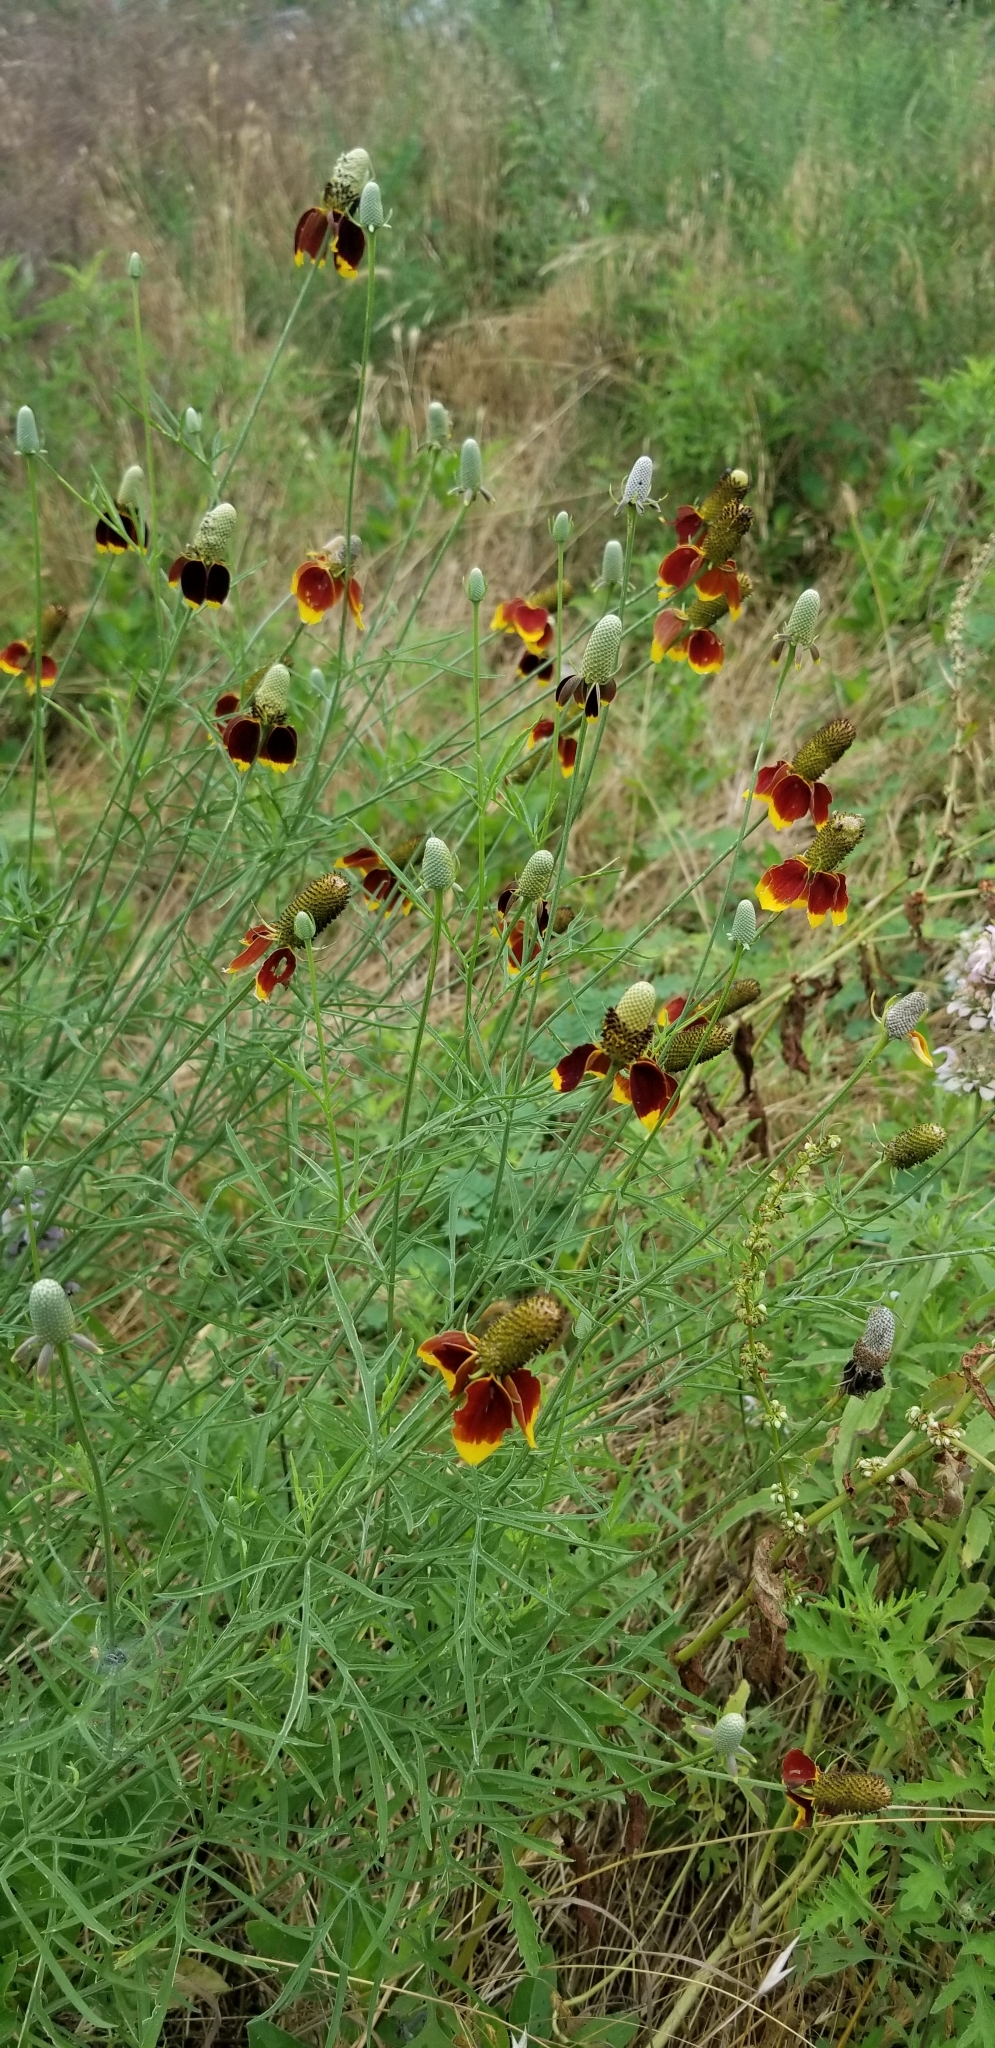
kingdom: Plantae
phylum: Tracheophyta
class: Magnoliopsida
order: Asterales
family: Asteraceae
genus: Ratibida
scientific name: Ratibida columnifera
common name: Prairie coneflower
